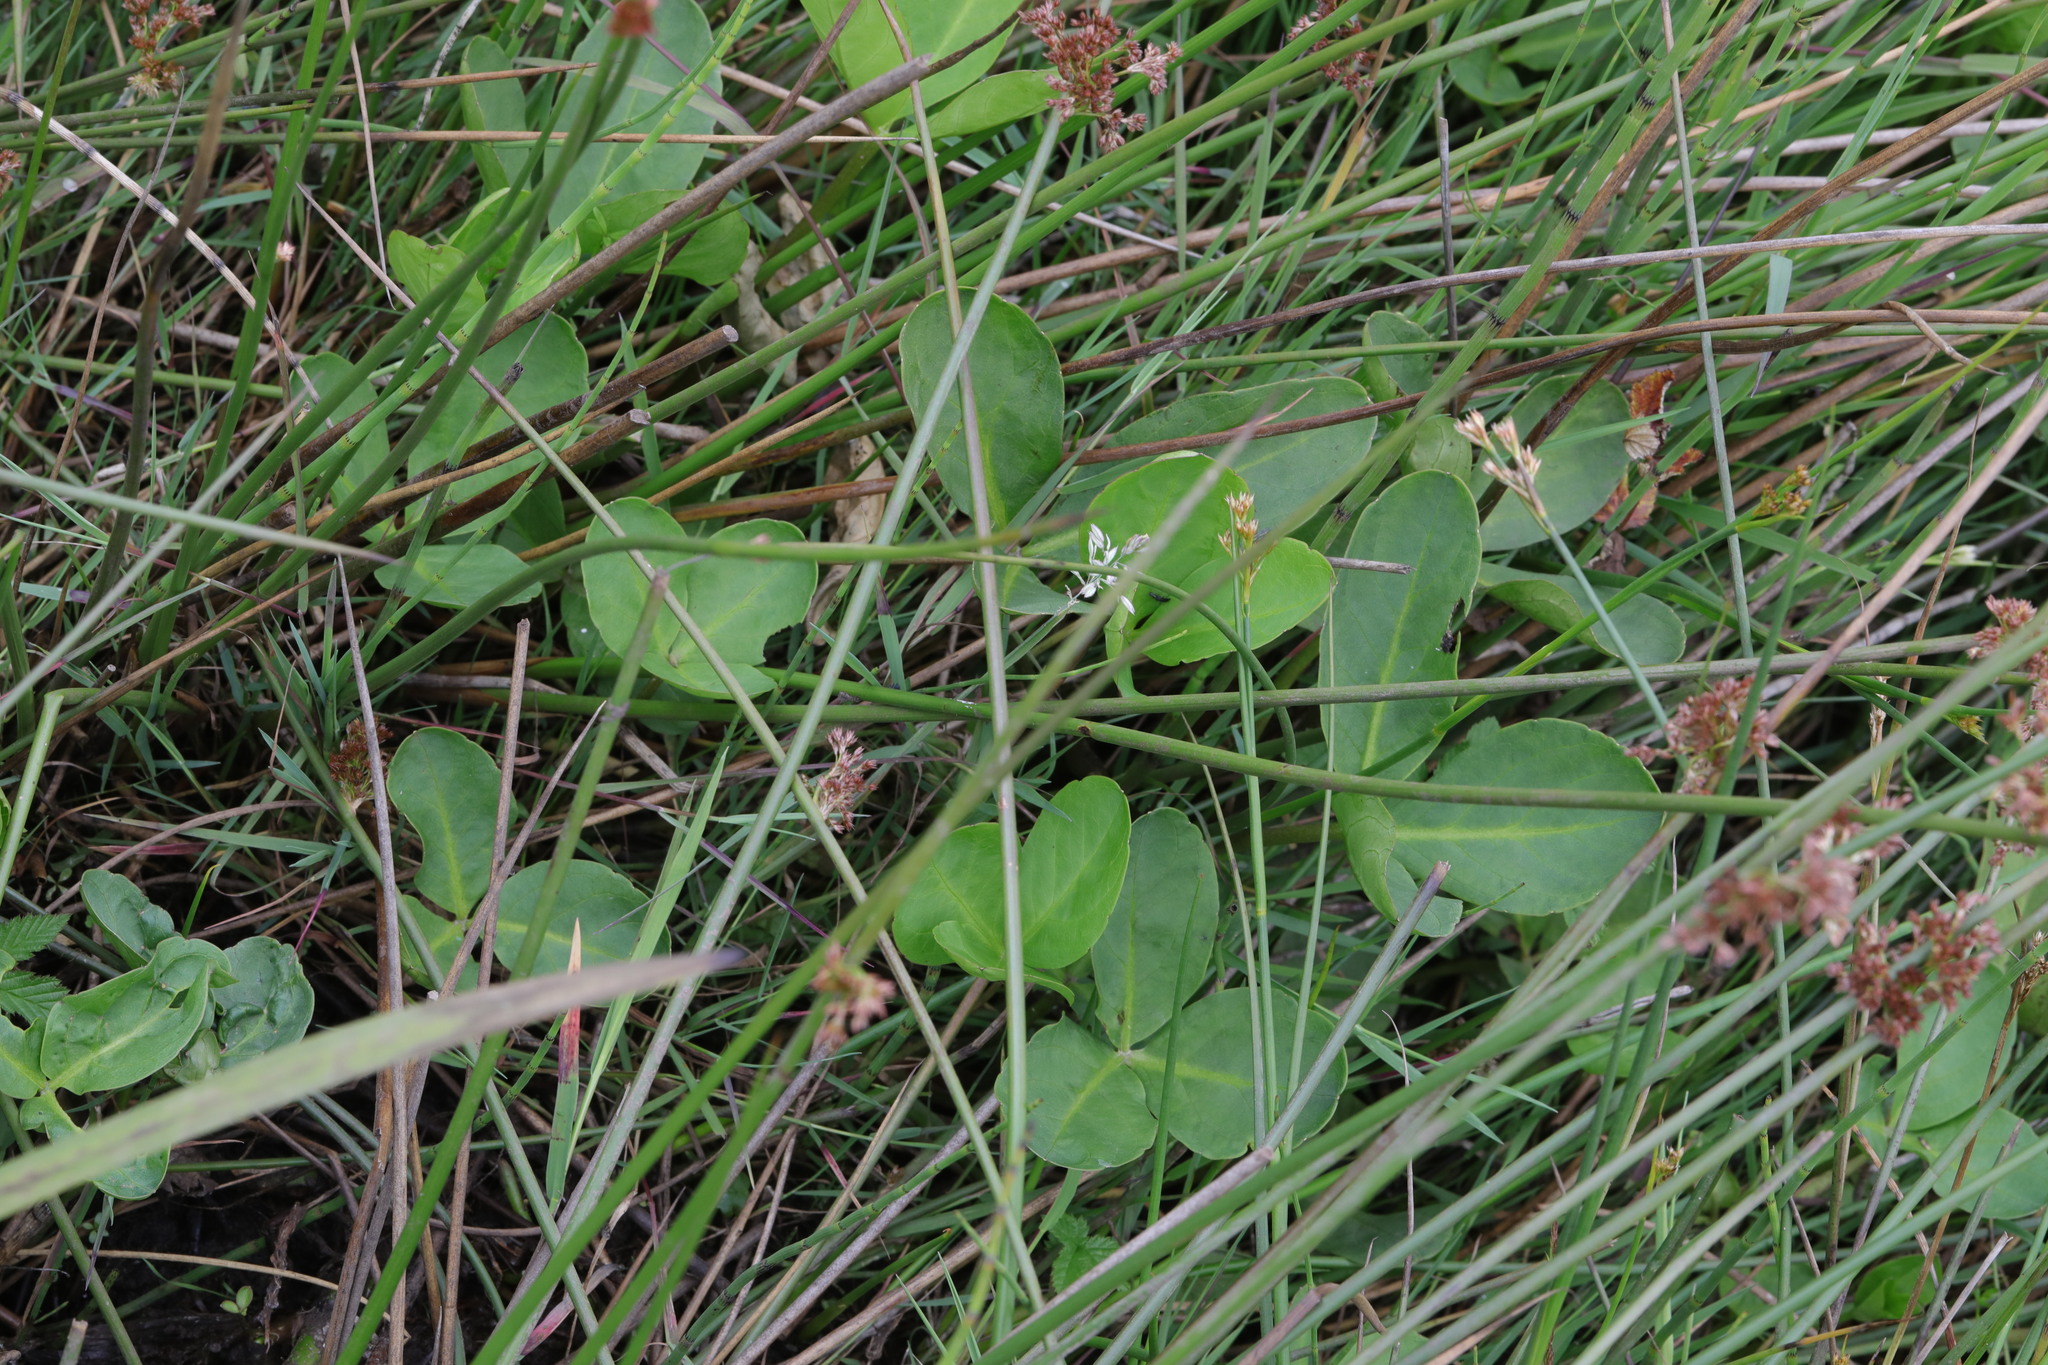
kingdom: Plantae
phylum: Tracheophyta
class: Magnoliopsida
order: Asterales
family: Menyanthaceae
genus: Menyanthes
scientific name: Menyanthes trifoliata
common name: Bogbean
